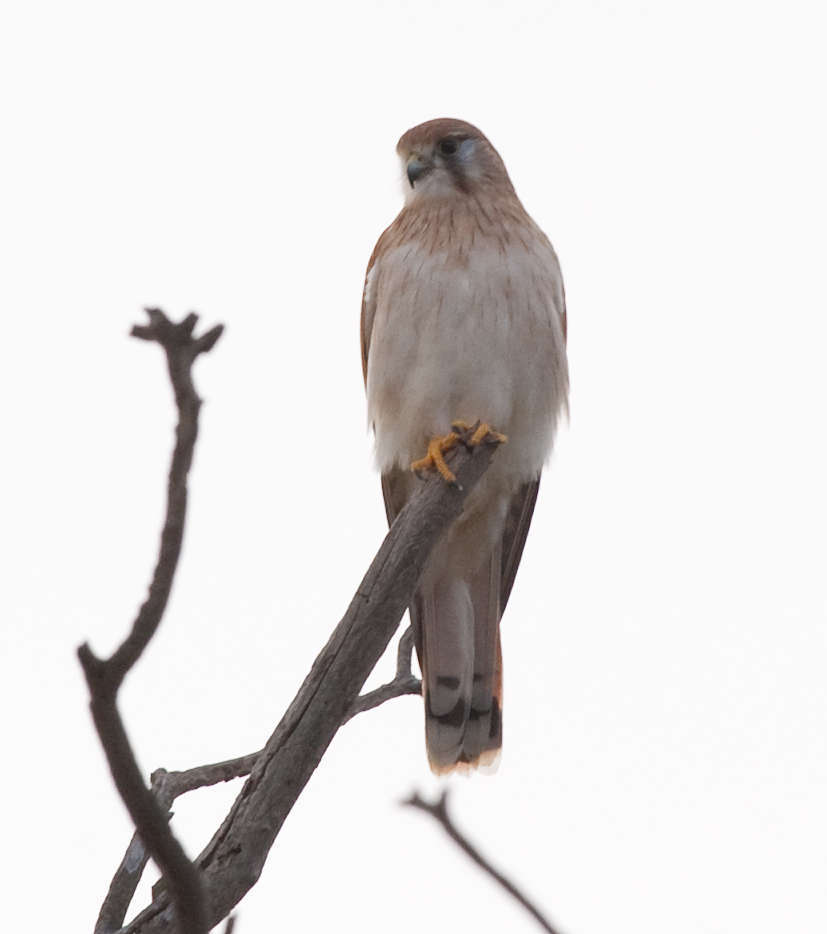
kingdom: Animalia
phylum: Chordata
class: Aves
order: Falconiformes
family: Falconidae
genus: Falco
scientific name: Falco cenchroides
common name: Nankeen kestrel
